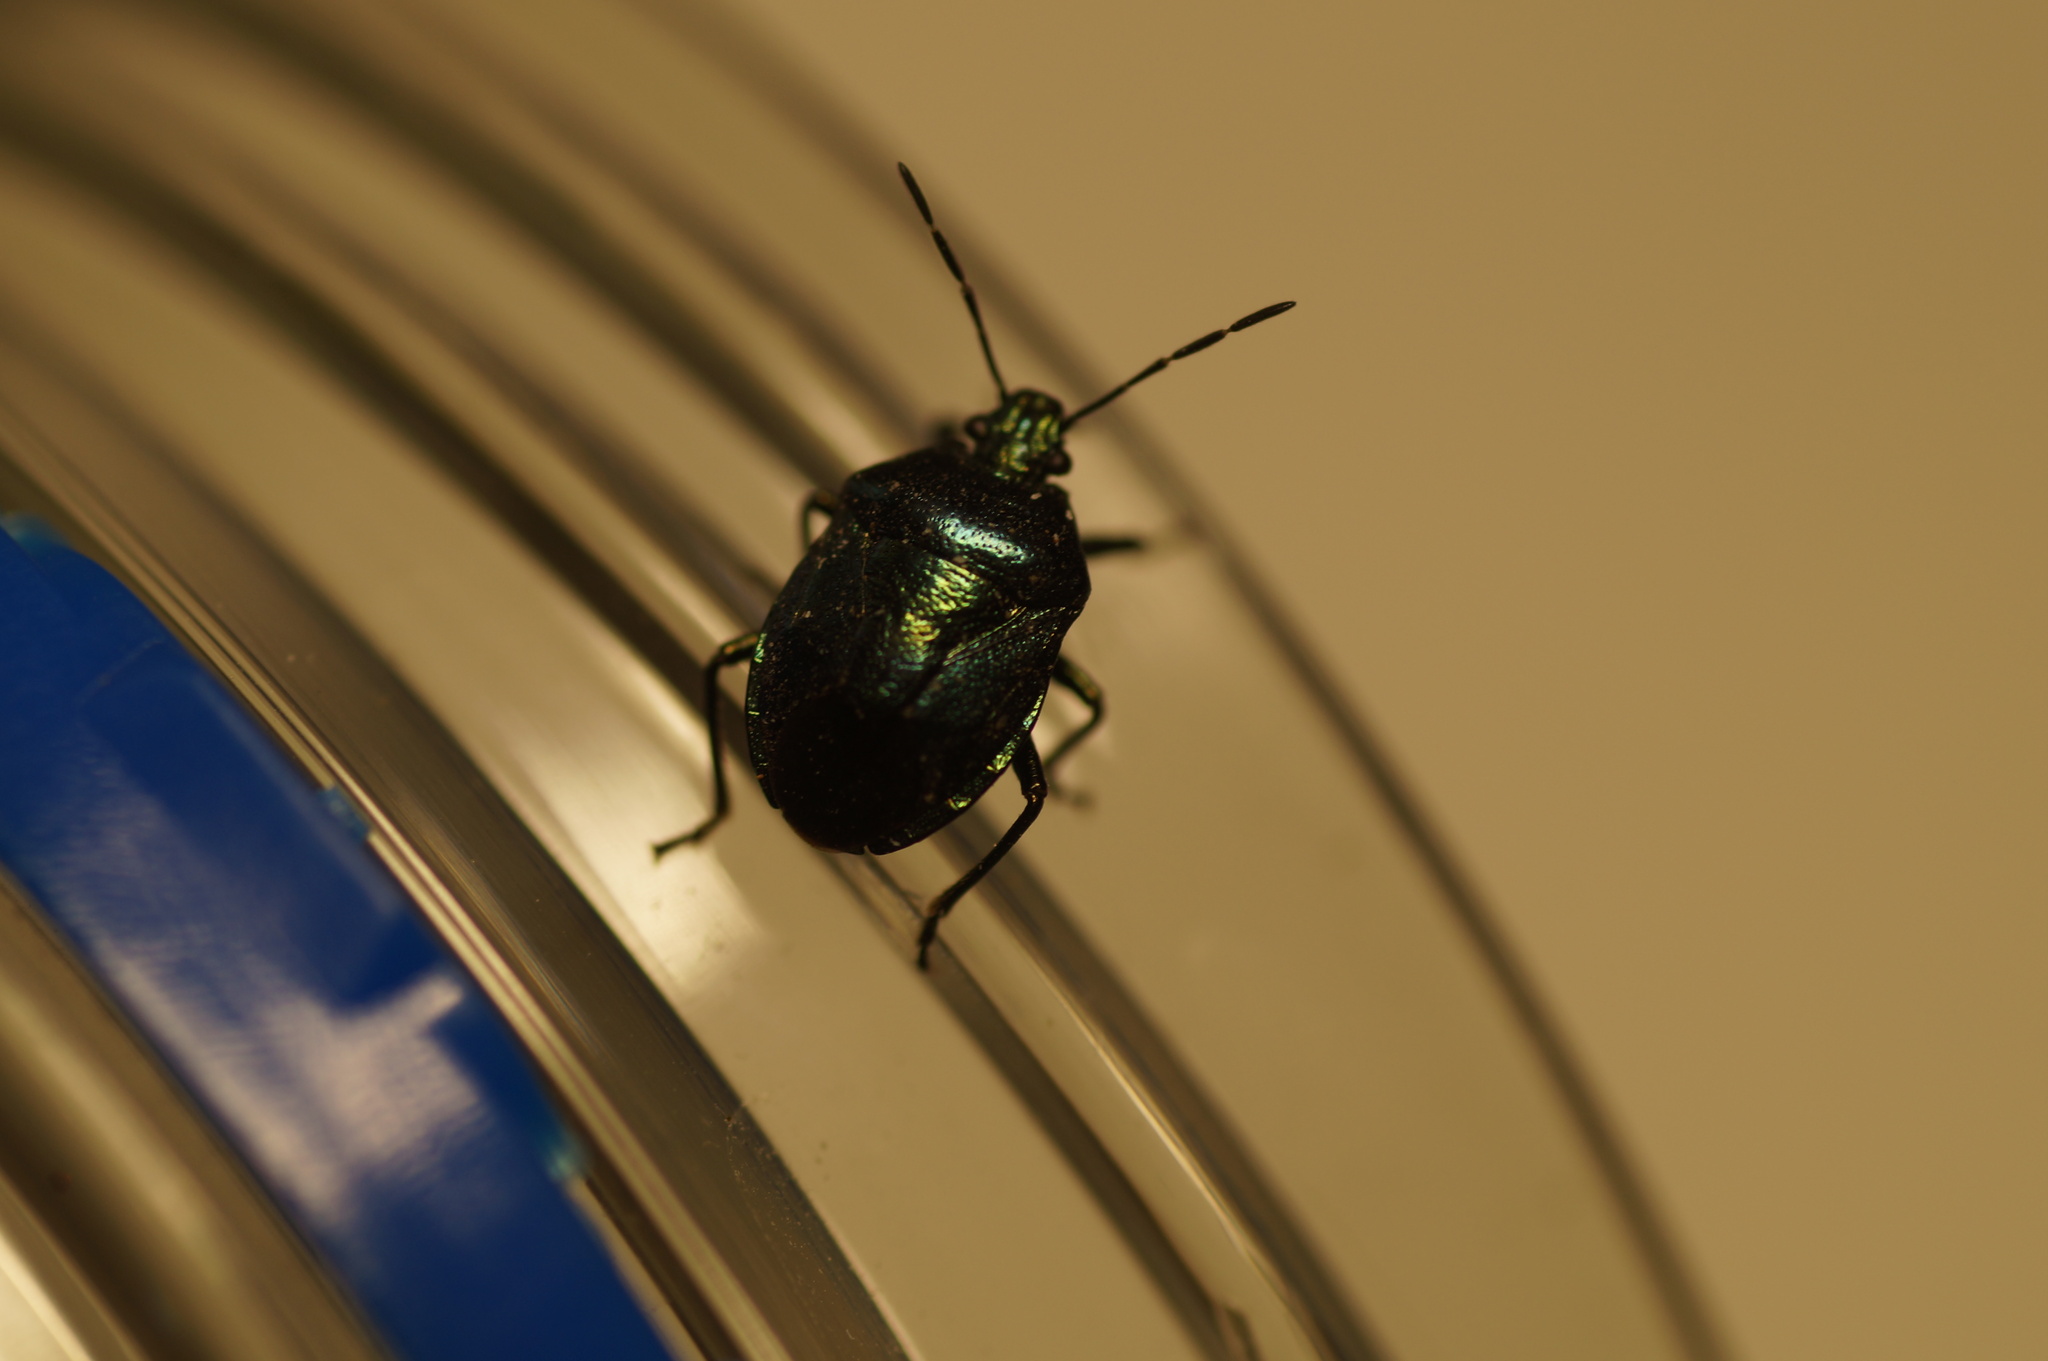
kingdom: Animalia
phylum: Arthropoda
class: Insecta
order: Hemiptera
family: Pentatomidae
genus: Zicrona
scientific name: Zicrona caerulea
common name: Blue shieldbug
